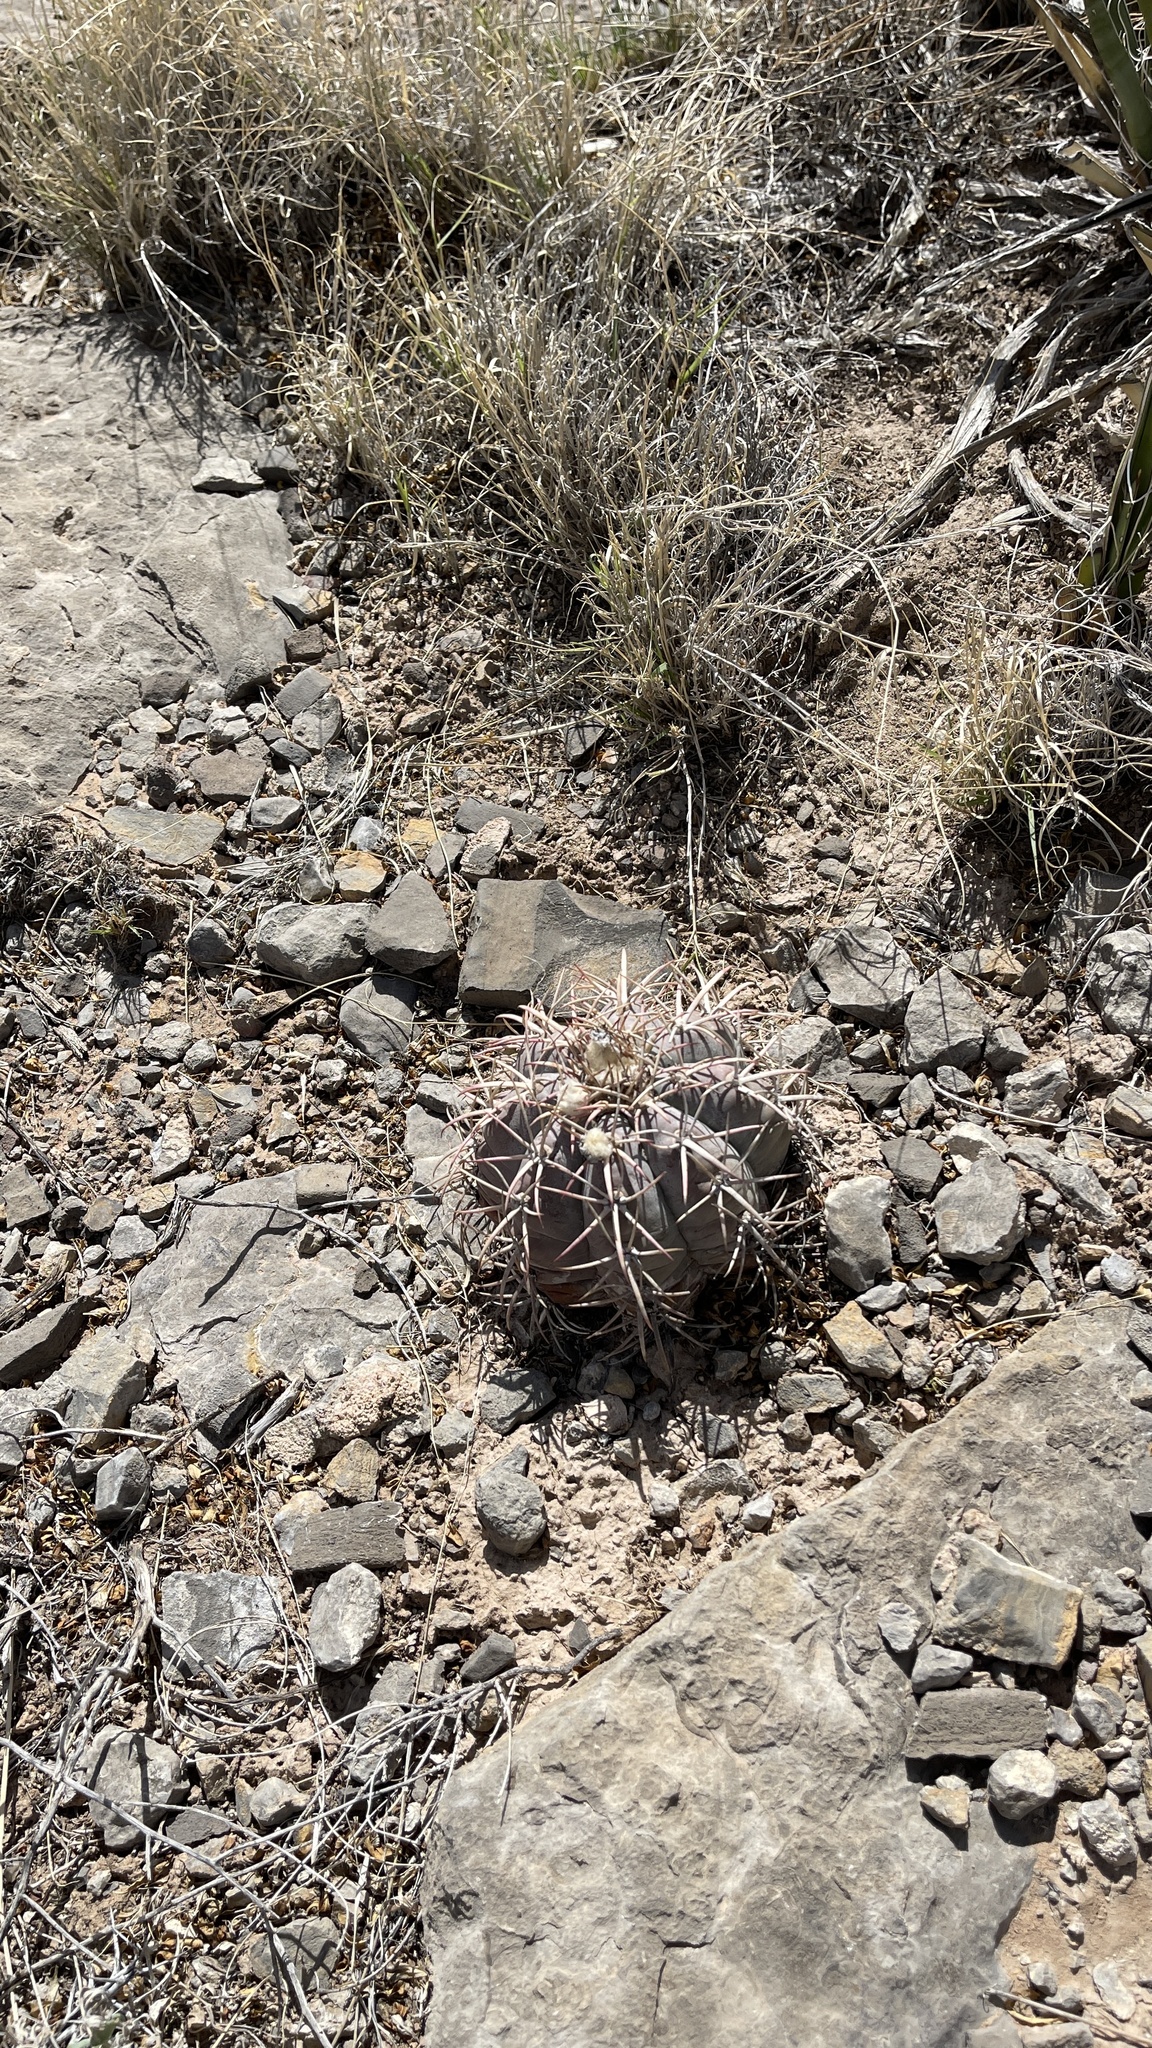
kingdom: Plantae
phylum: Tracheophyta
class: Magnoliopsida
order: Caryophyllales
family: Cactaceae
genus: Echinocactus
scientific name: Echinocactus horizonthalonius
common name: Devilshead
